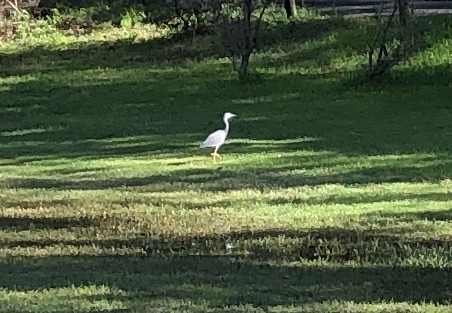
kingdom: Animalia
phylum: Chordata
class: Aves
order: Pelecaniformes
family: Ardeidae
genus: Egretta
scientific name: Egretta novaehollandiae
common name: White-faced heron
